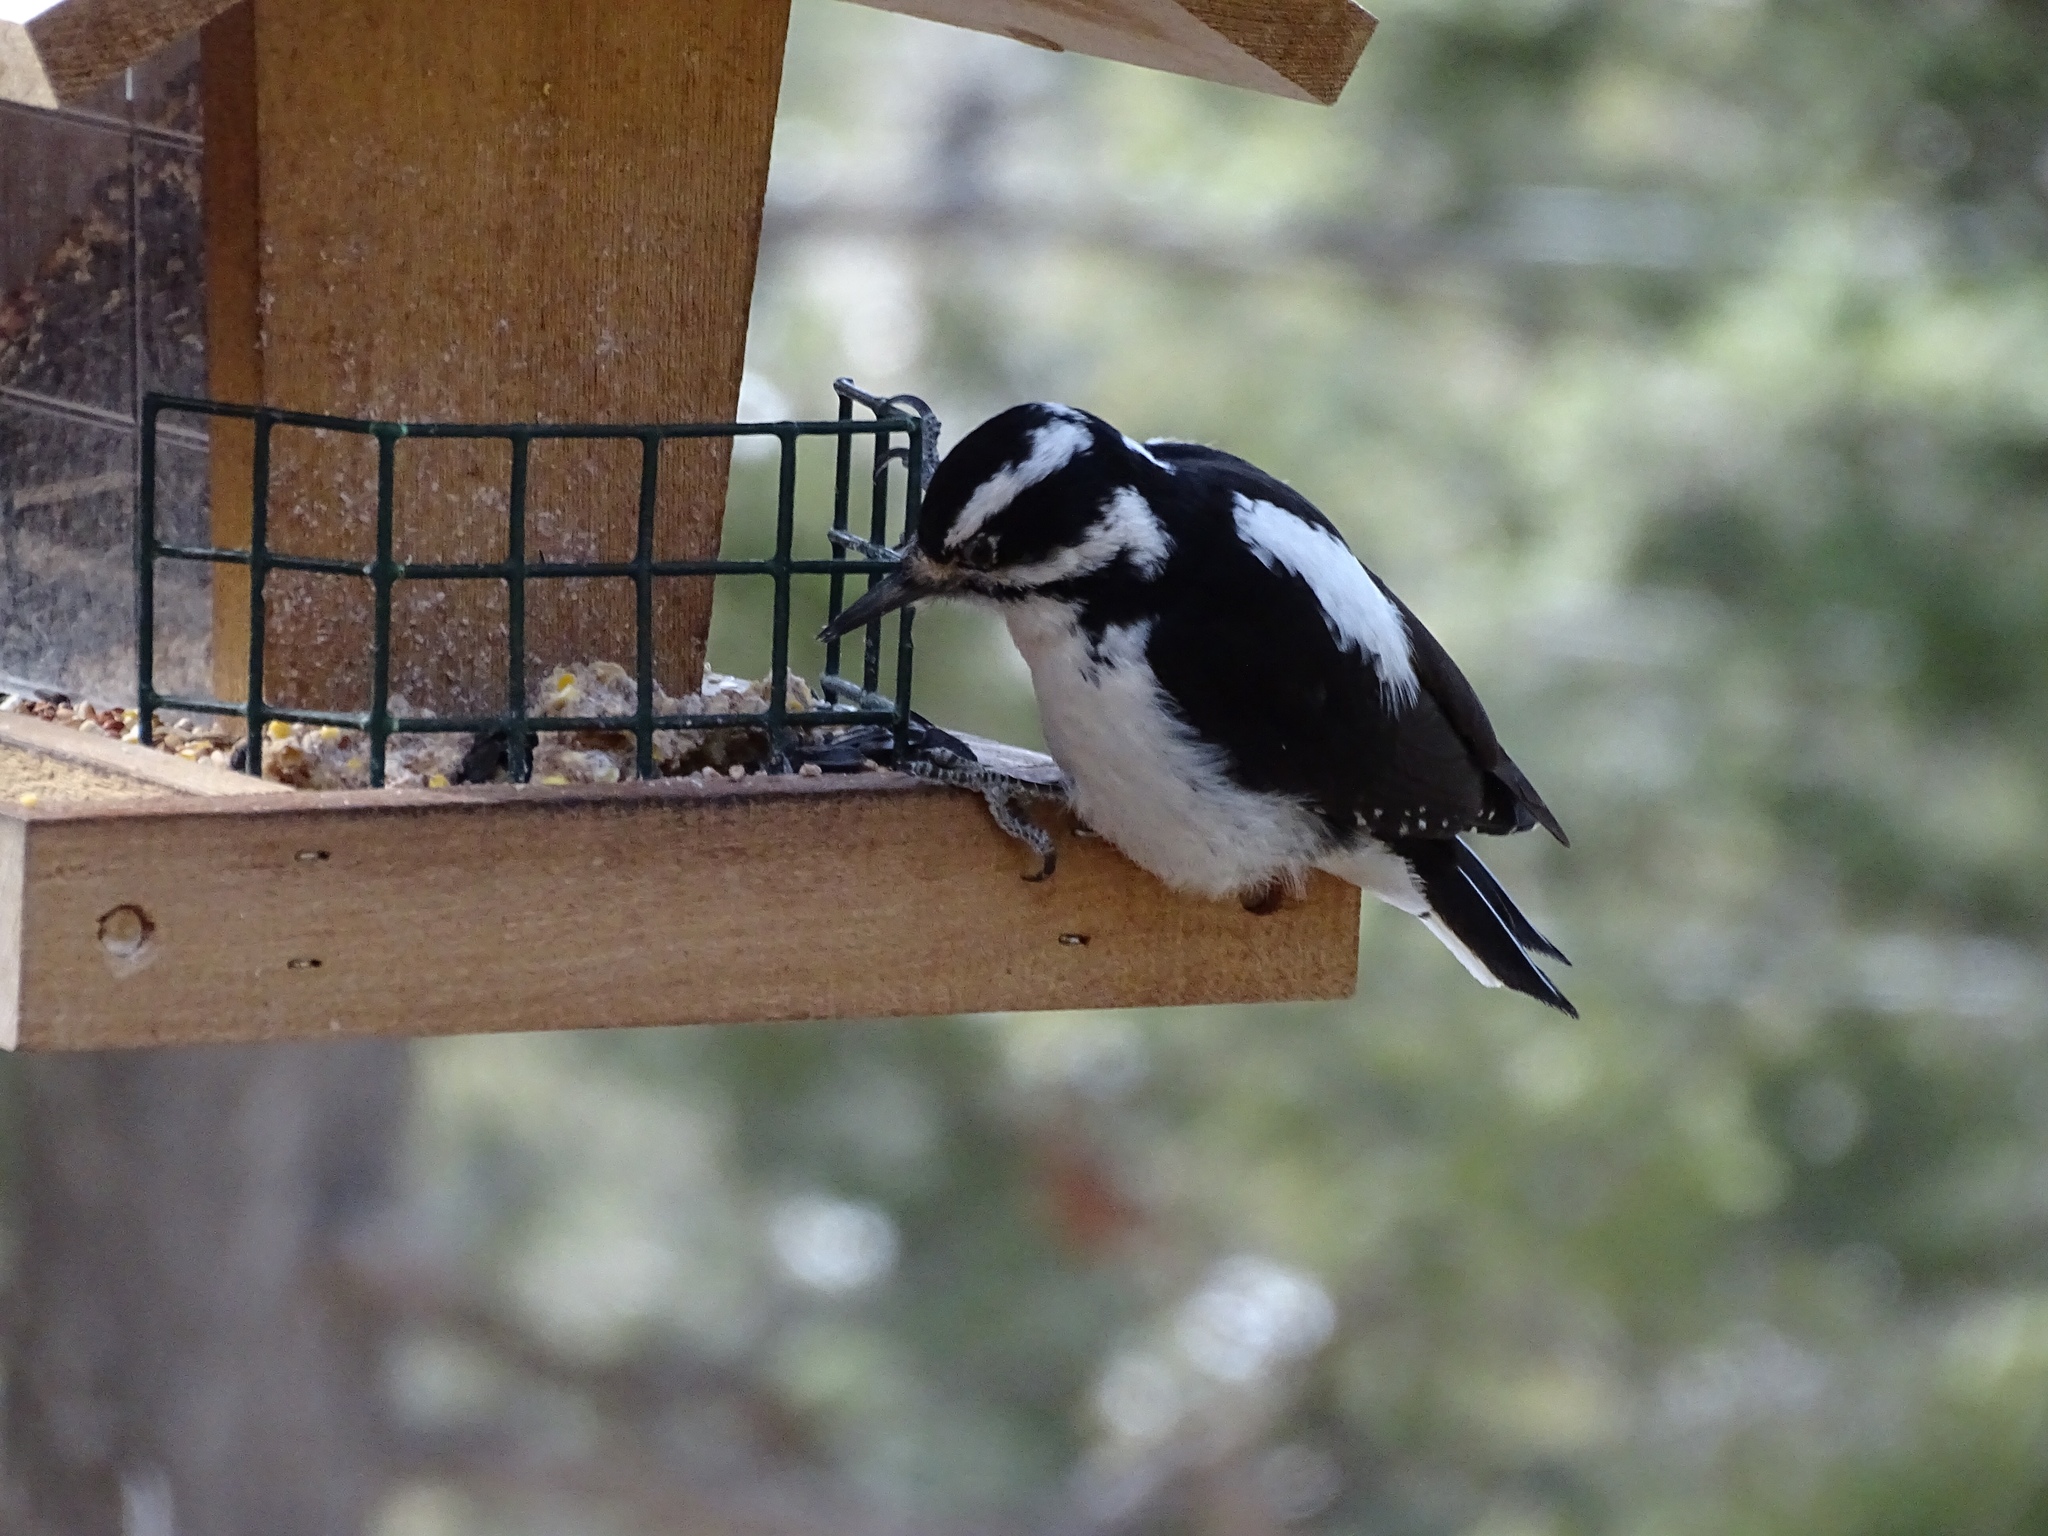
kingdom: Animalia
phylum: Chordata
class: Aves
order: Piciformes
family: Picidae
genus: Leuconotopicus
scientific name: Leuconotopicus villosus
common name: Hairy woodpecker
